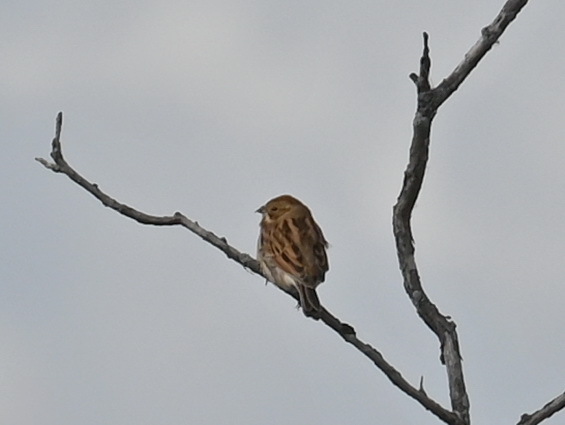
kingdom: Animalia
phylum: Chordata
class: Aves
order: Passeriformes
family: Emberizidae
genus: Emberiza
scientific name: Emberiza schoeniclus
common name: Reed bunting
